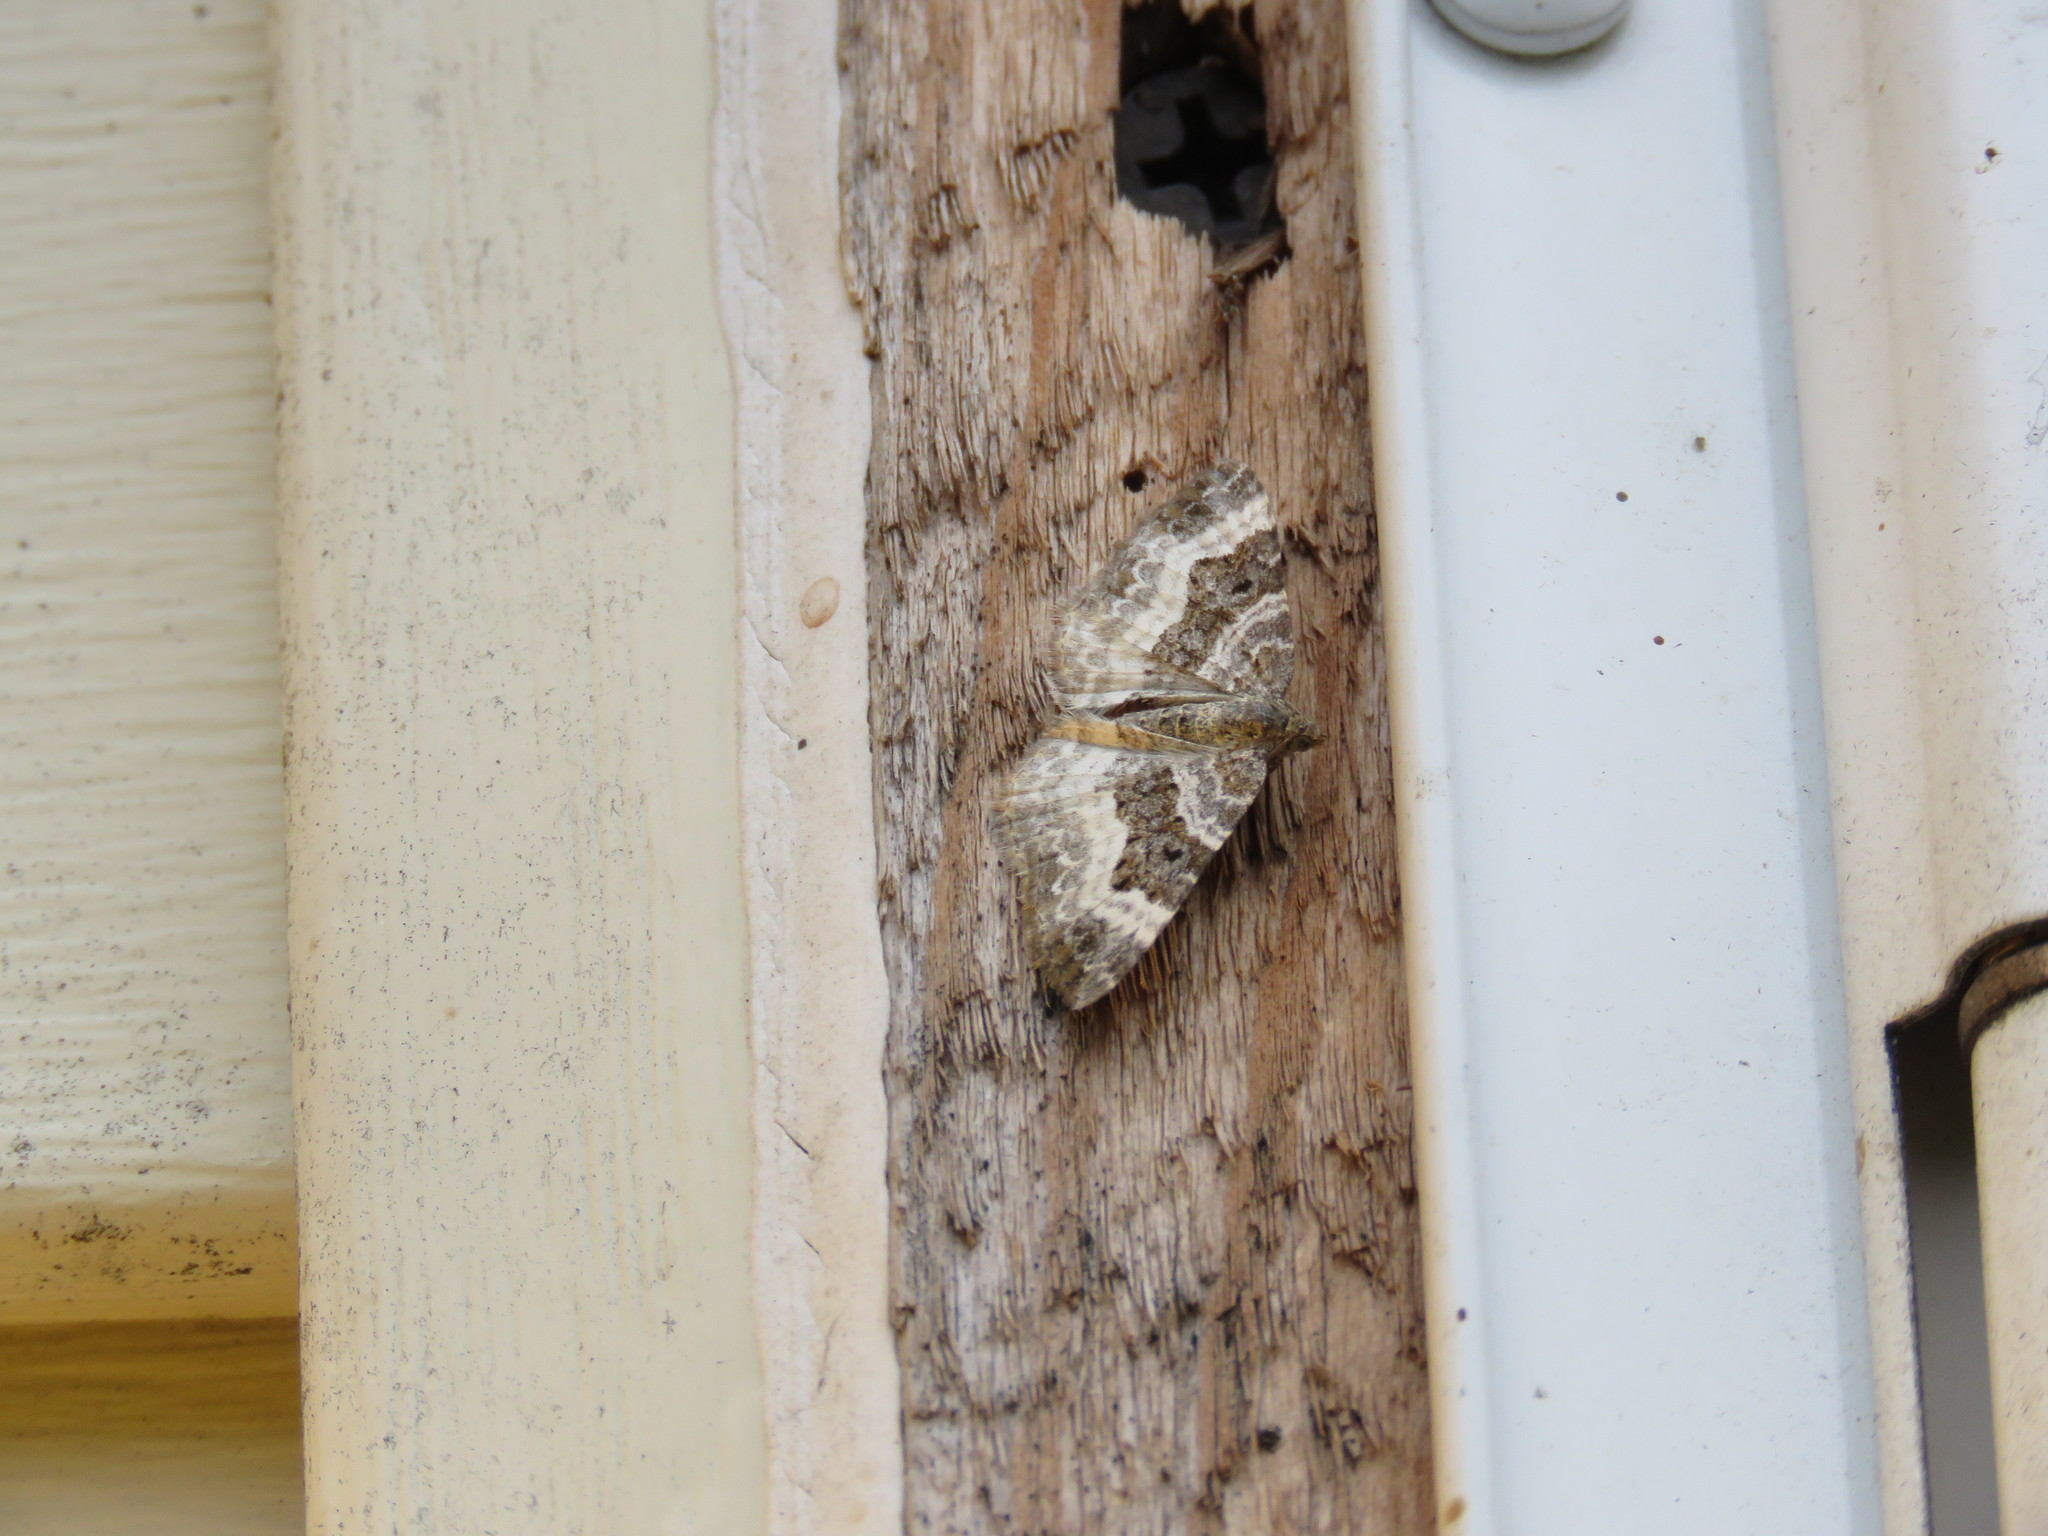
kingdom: Animalia
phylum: Arthropoda
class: Insecta
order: Lepidoptera
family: Geometridae
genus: Epirrhoe
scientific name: Epirrhoe alternata
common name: Common carpet
